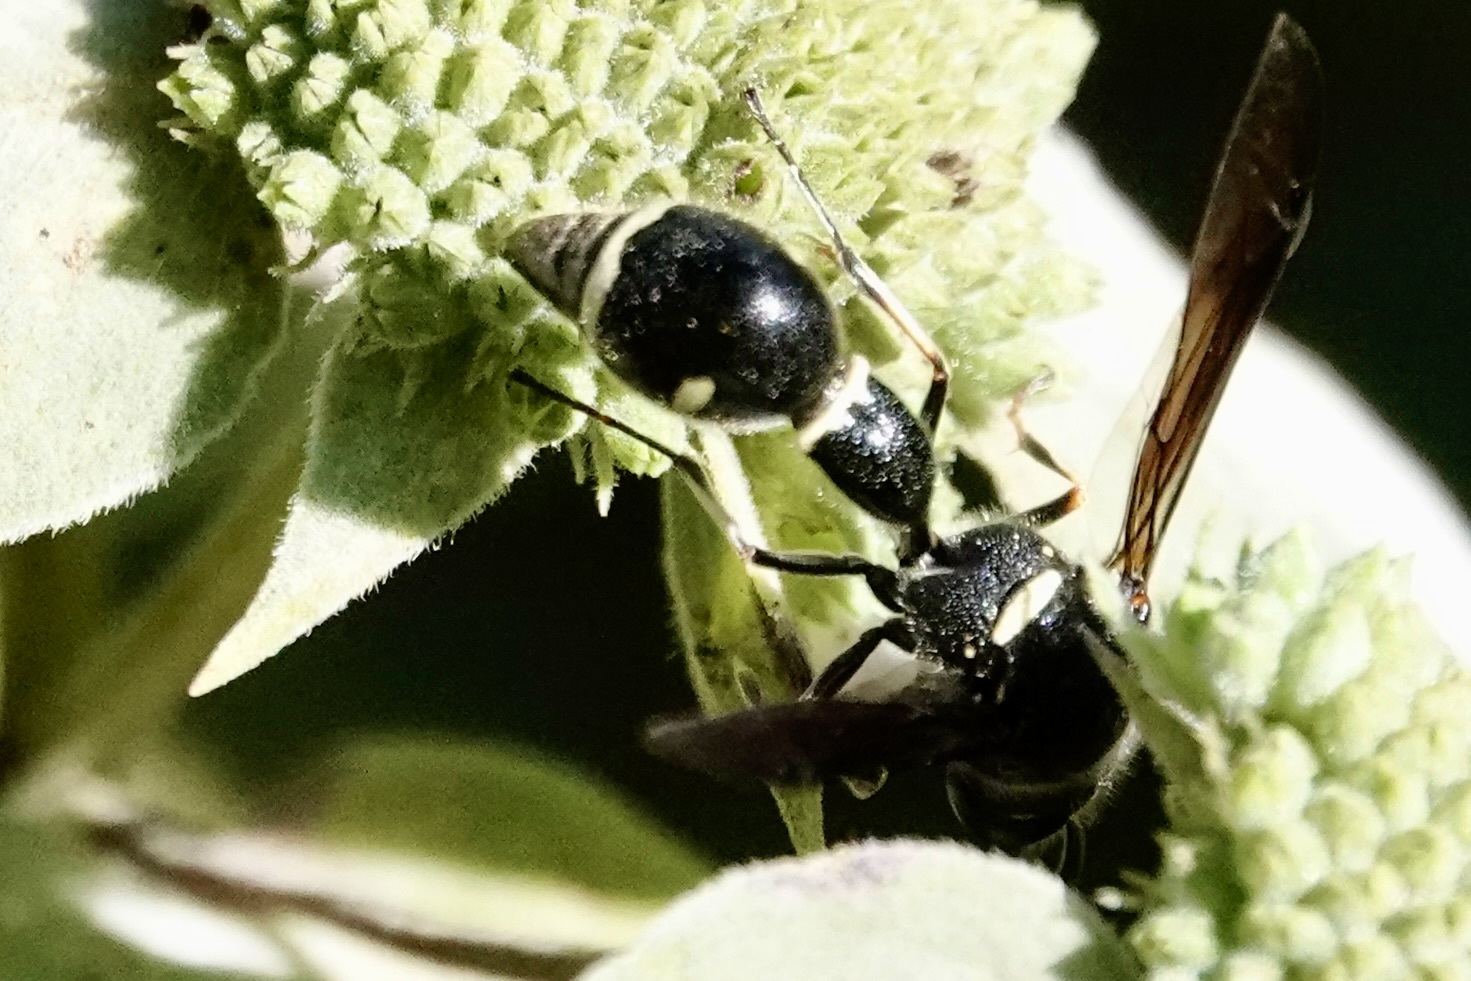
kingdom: Animalia
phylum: Arthropoda
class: Insecta
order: Hymenoptera
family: Vespidae
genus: Eumenes
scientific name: Eumenes fraternus
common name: Fraternal potter wasp
